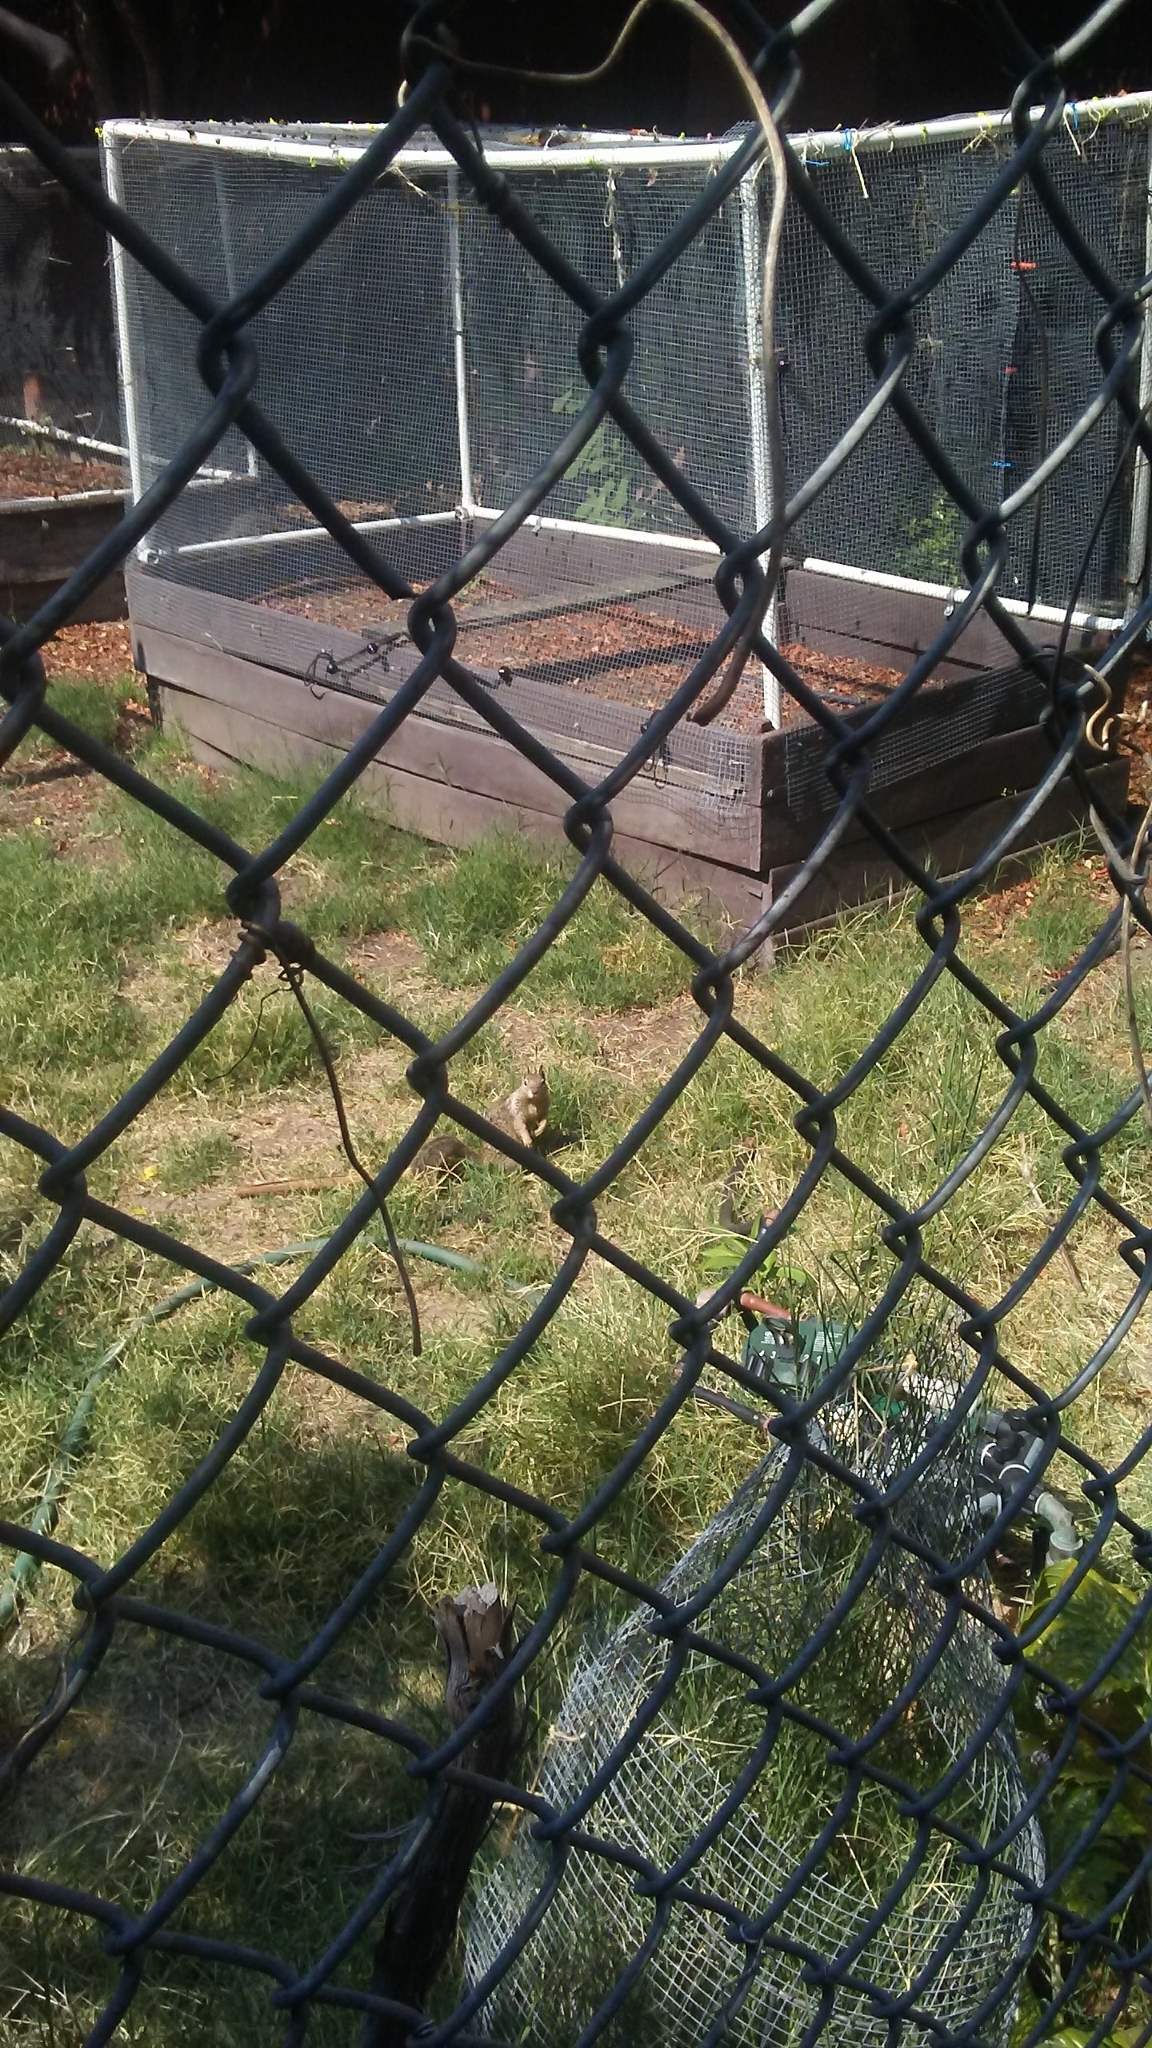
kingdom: Animalia
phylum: Chordata
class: Mammalia
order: Rodentia
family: Sciuridae
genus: Otospermophilus
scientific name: Otospermophilus beecheyi
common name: California ground squirrel
